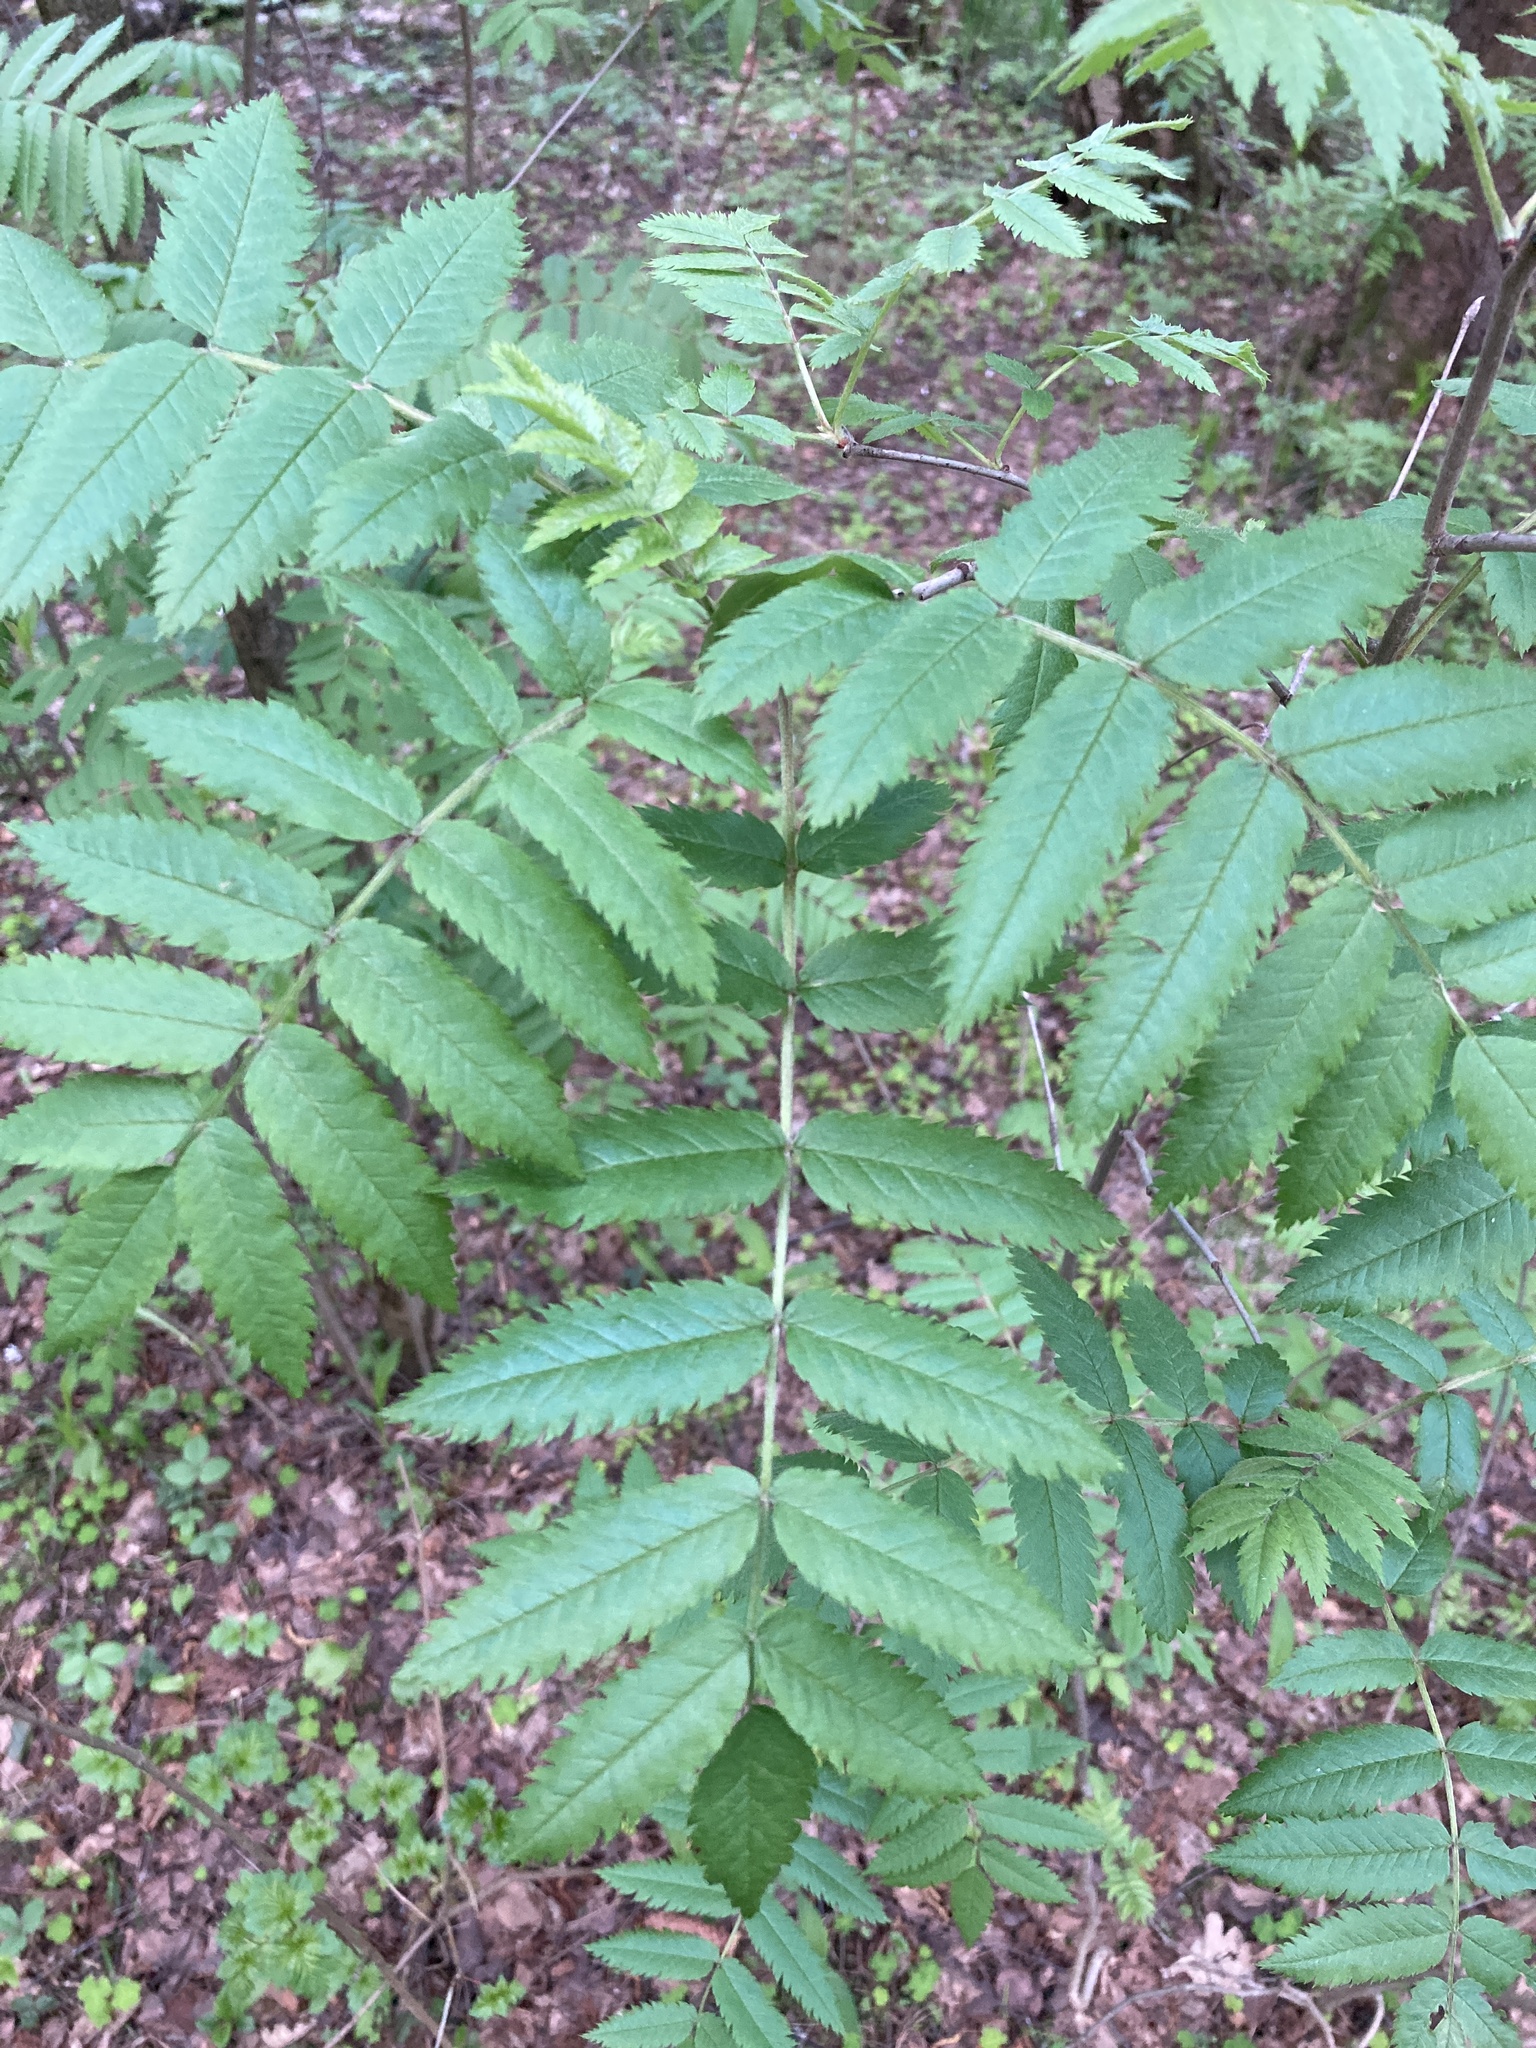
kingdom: Plantae
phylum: Tracheophyta
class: Magnoliopsida
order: Rosales
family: Rosaceae
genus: Sorbus
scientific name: Sorbus aucuparia
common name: Rowan
